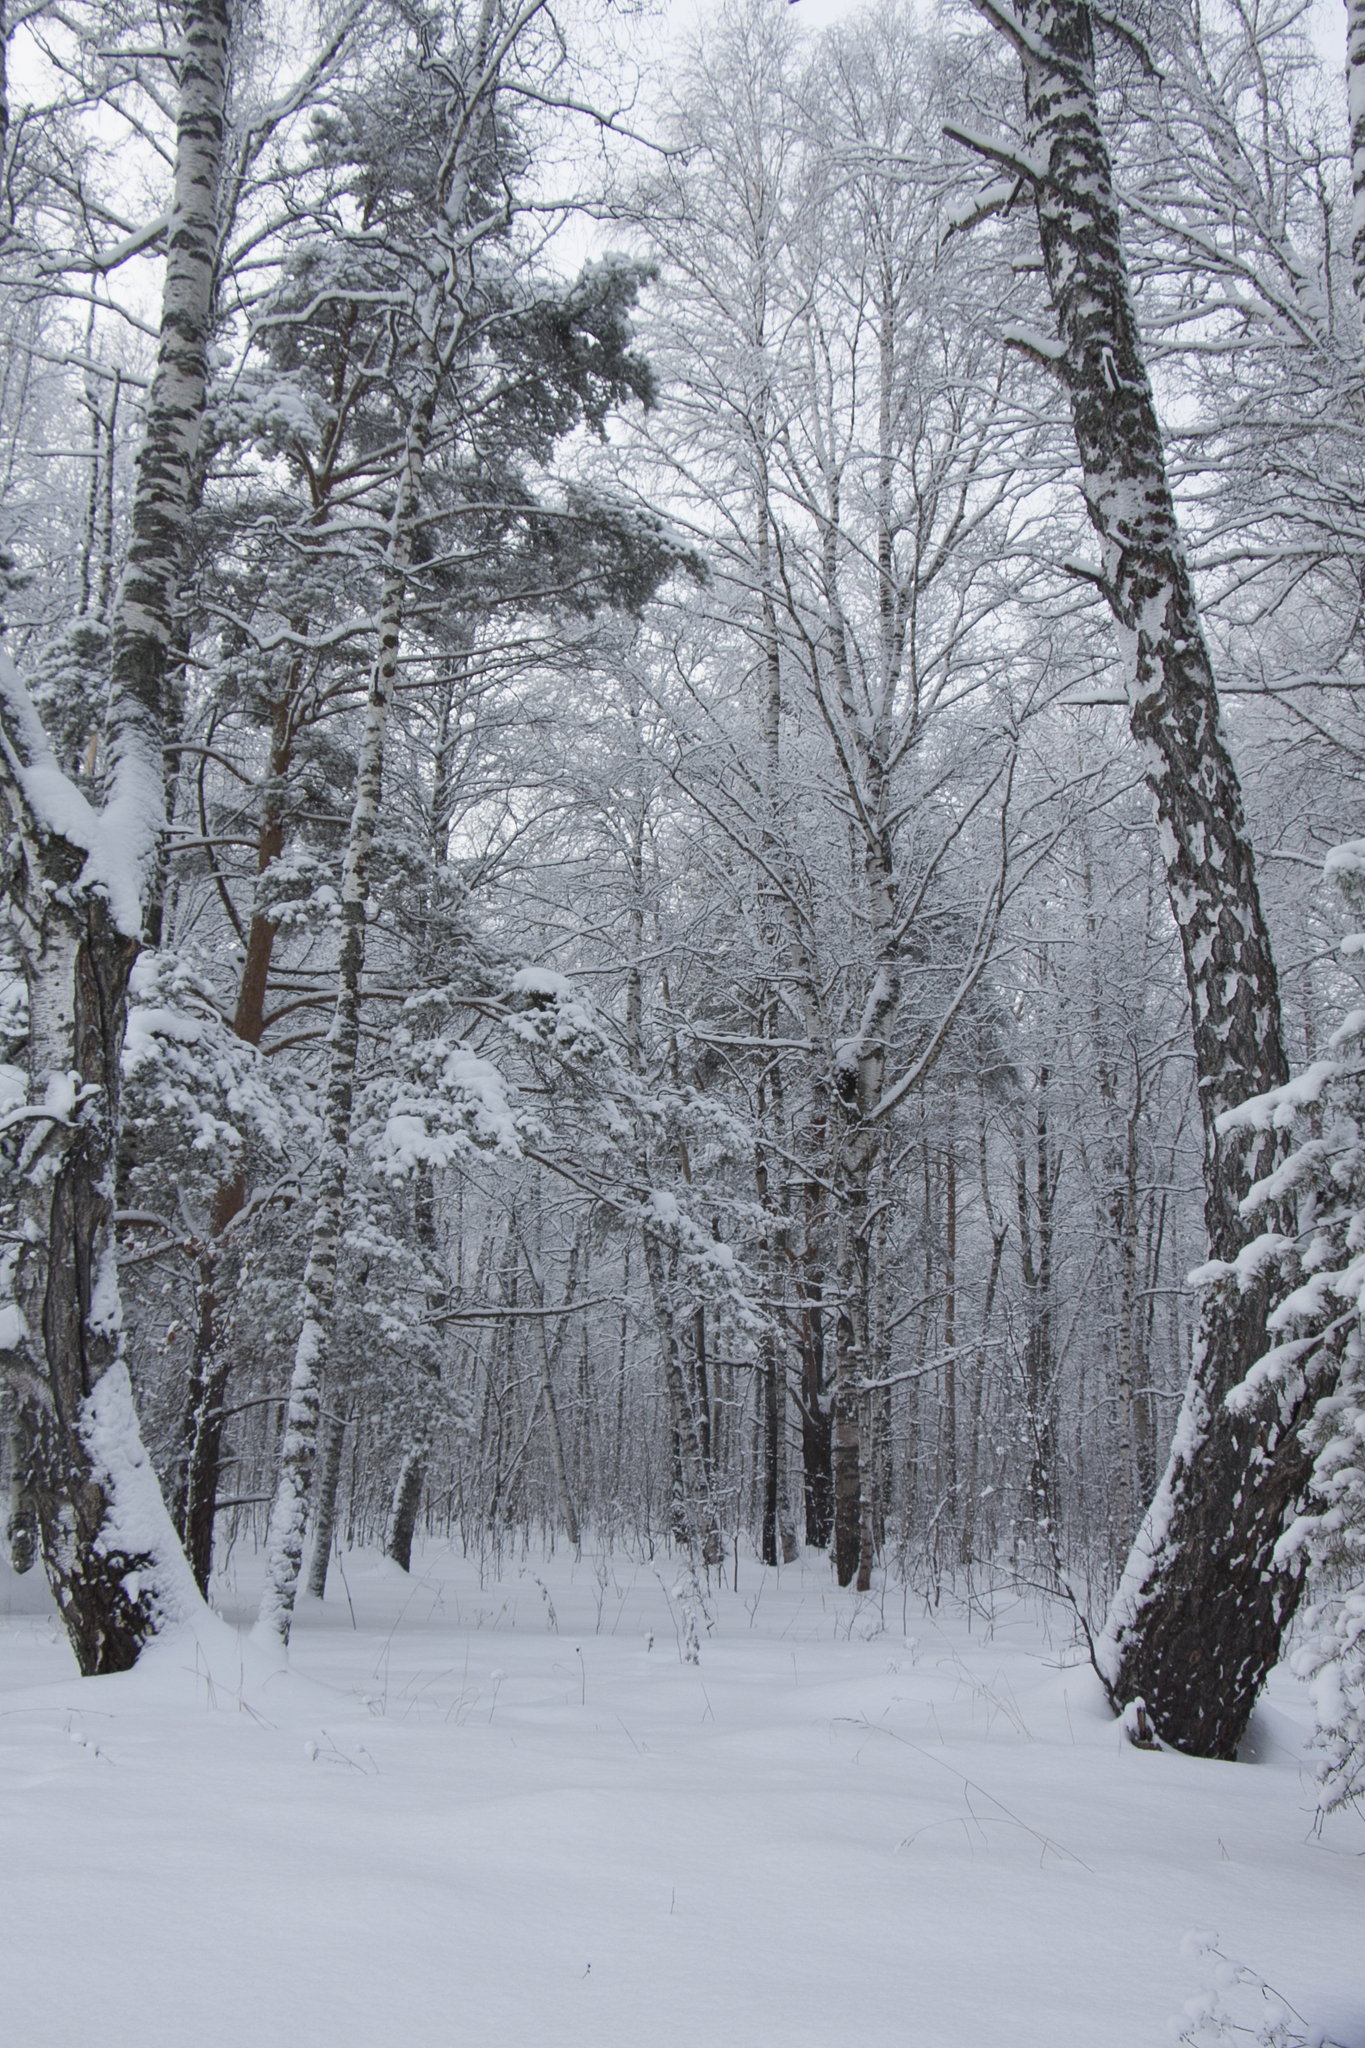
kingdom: Plantae
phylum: Tracheophyta
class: Magnoliopsida
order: Fagales
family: Betulaceae
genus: Betula
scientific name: Betula pendula
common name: Silver birch
